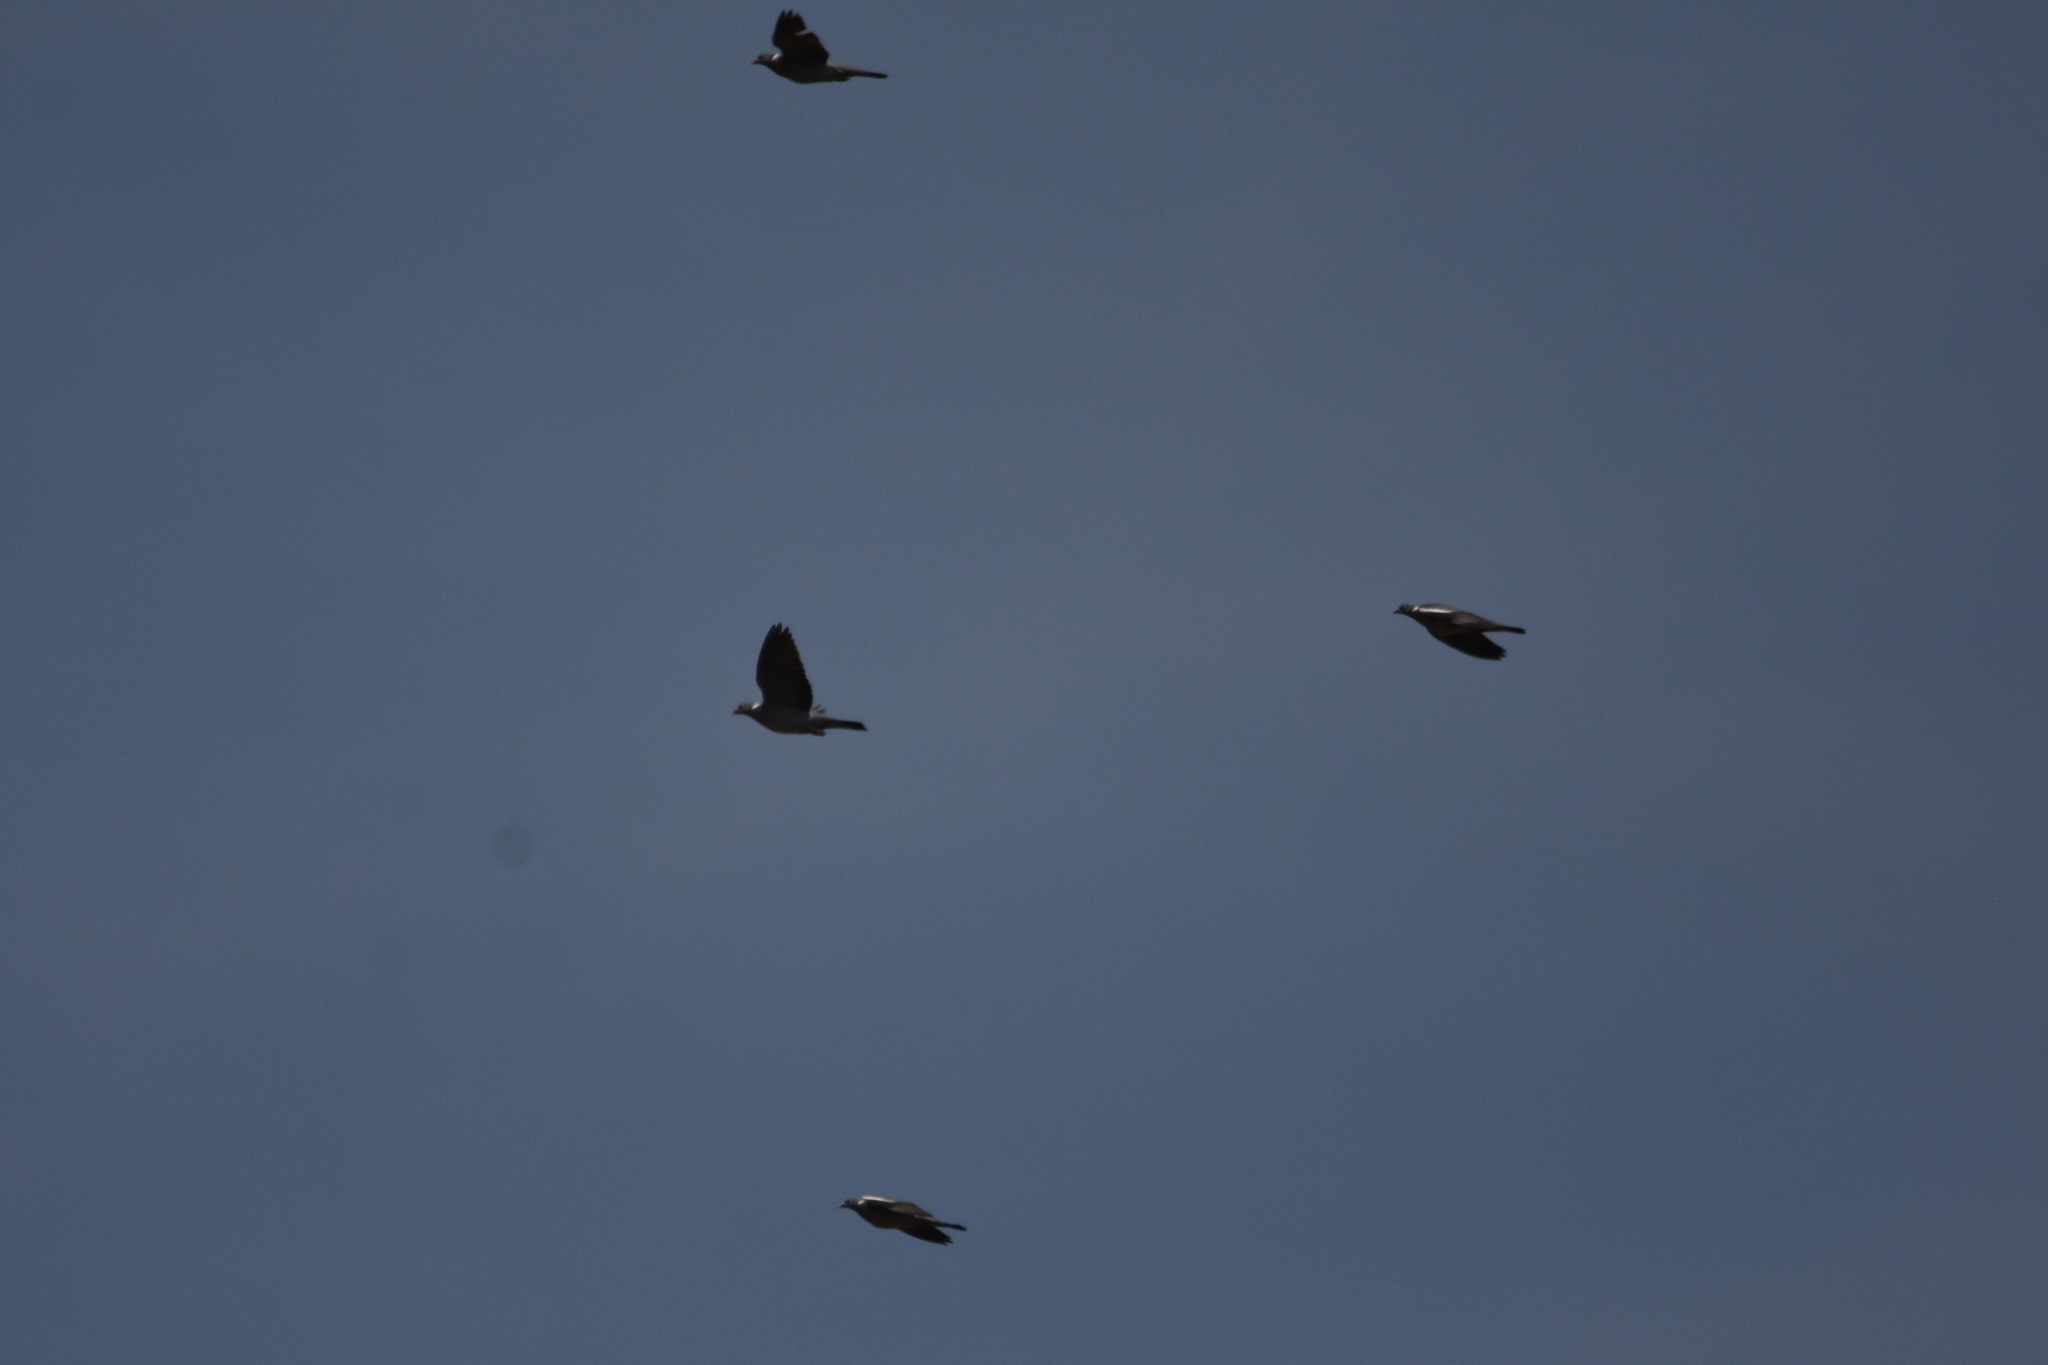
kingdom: Animalia
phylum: Chordata
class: Aves
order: Columbiformes
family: Columbidae
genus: Columba
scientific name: Columba palumbus
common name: Common wood pigeon
